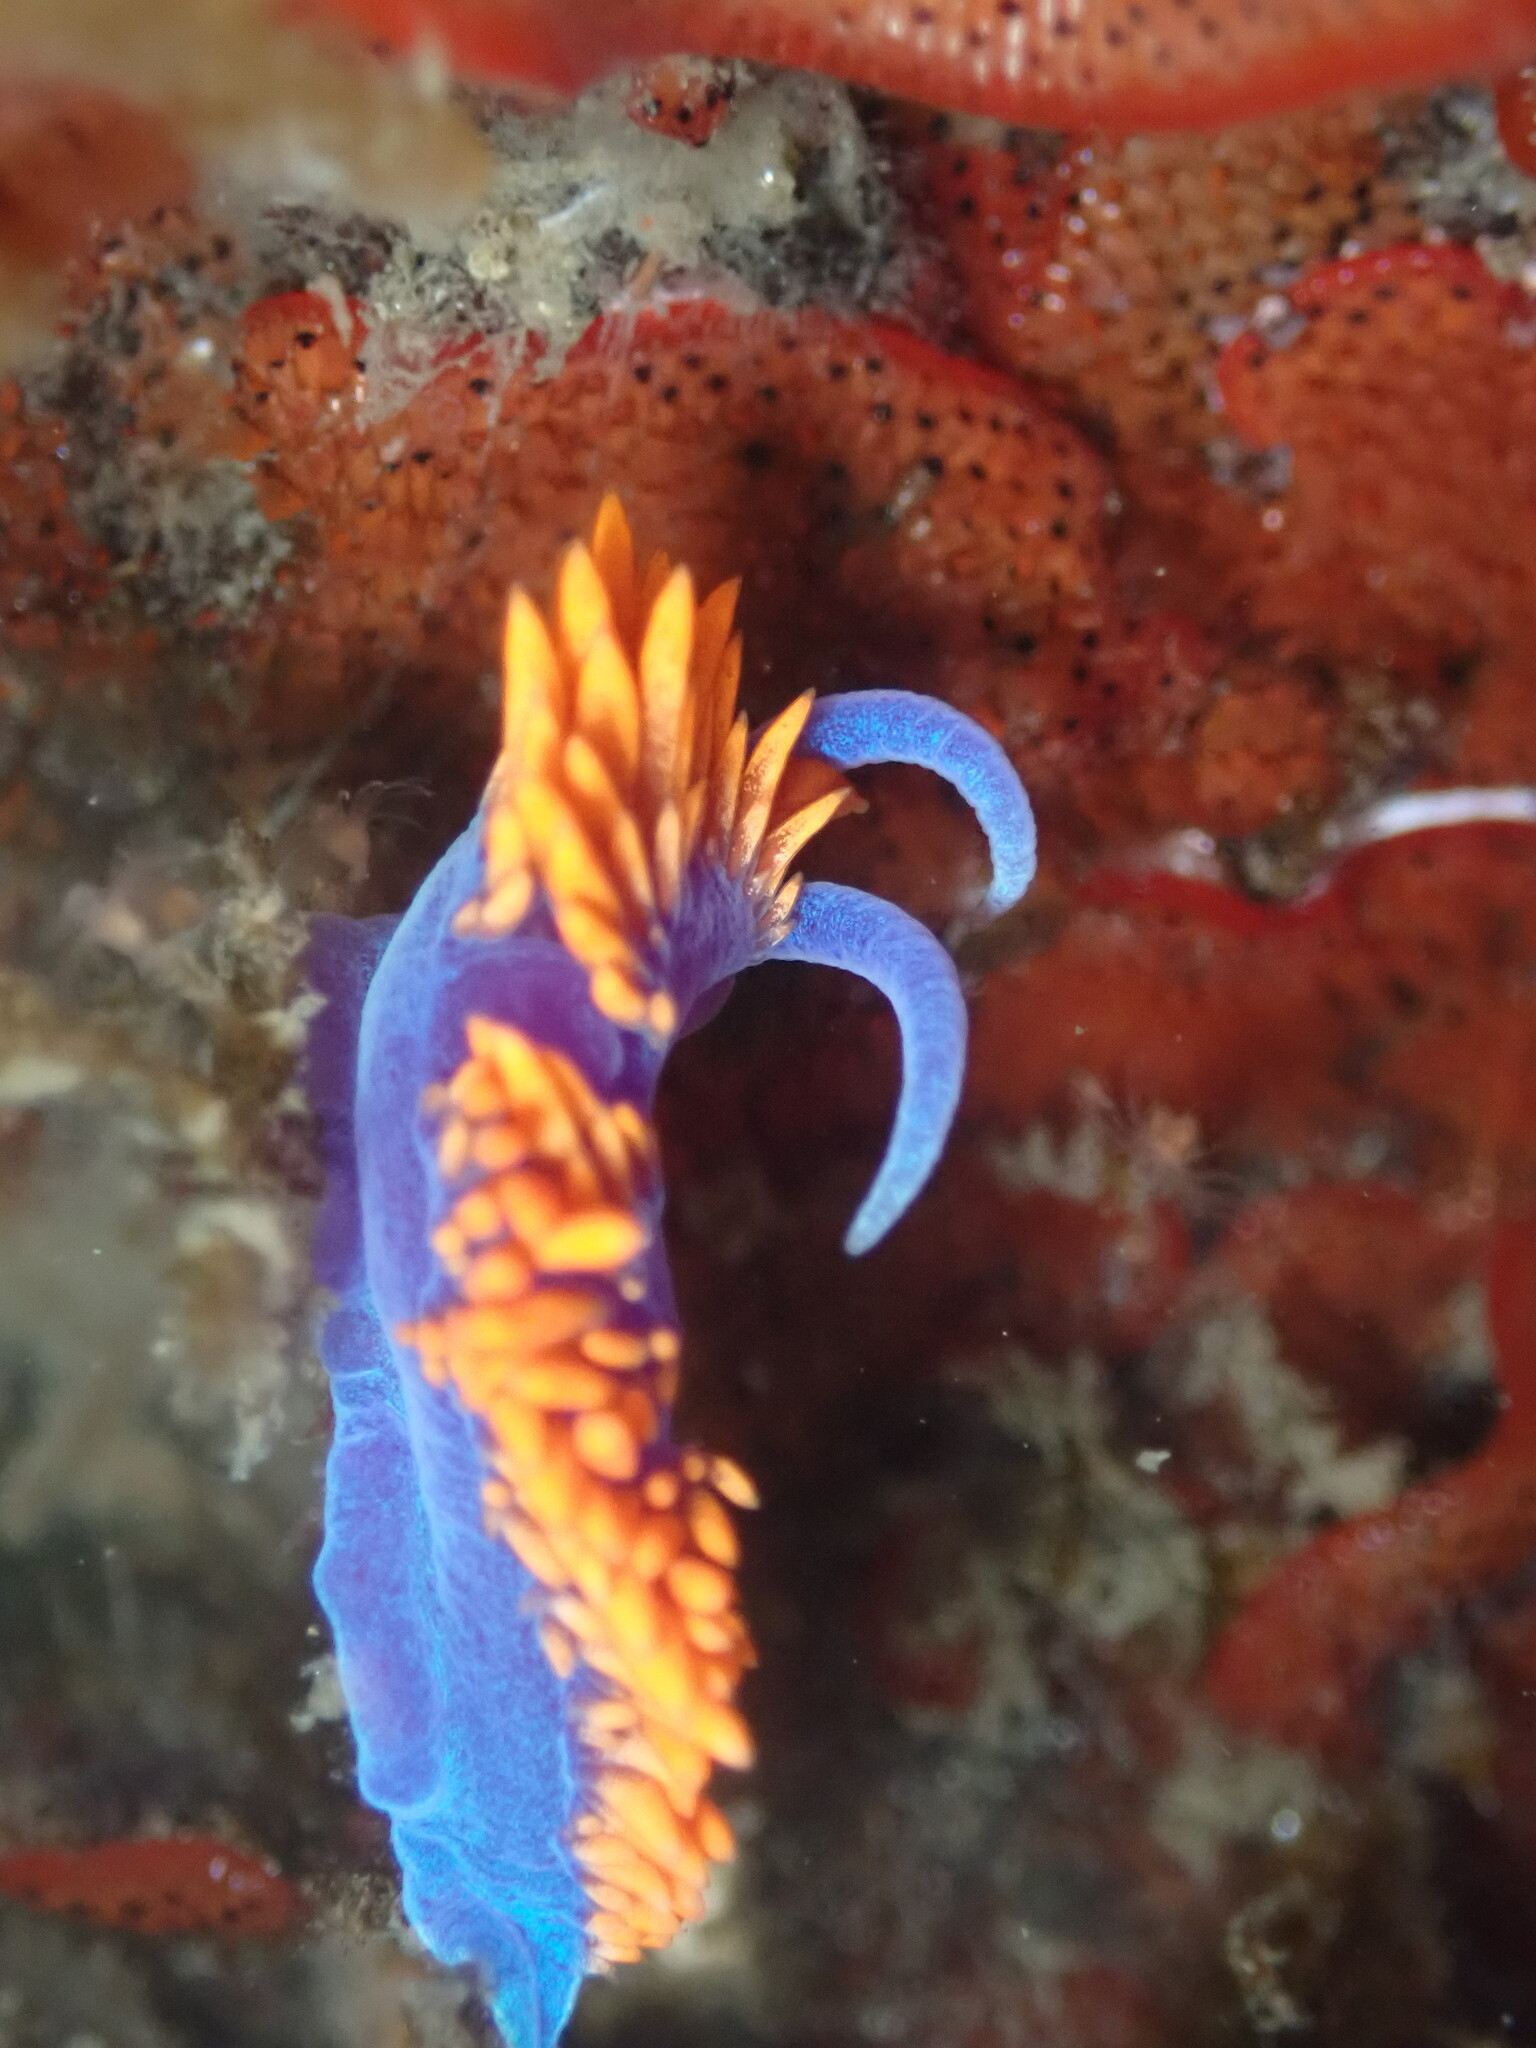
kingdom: Animalia
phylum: Mollusca
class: Gastropoda
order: Nudibranchia
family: Flabellinopsidae
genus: Flabellinopsis
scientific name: Flabellinopsis iodinea
